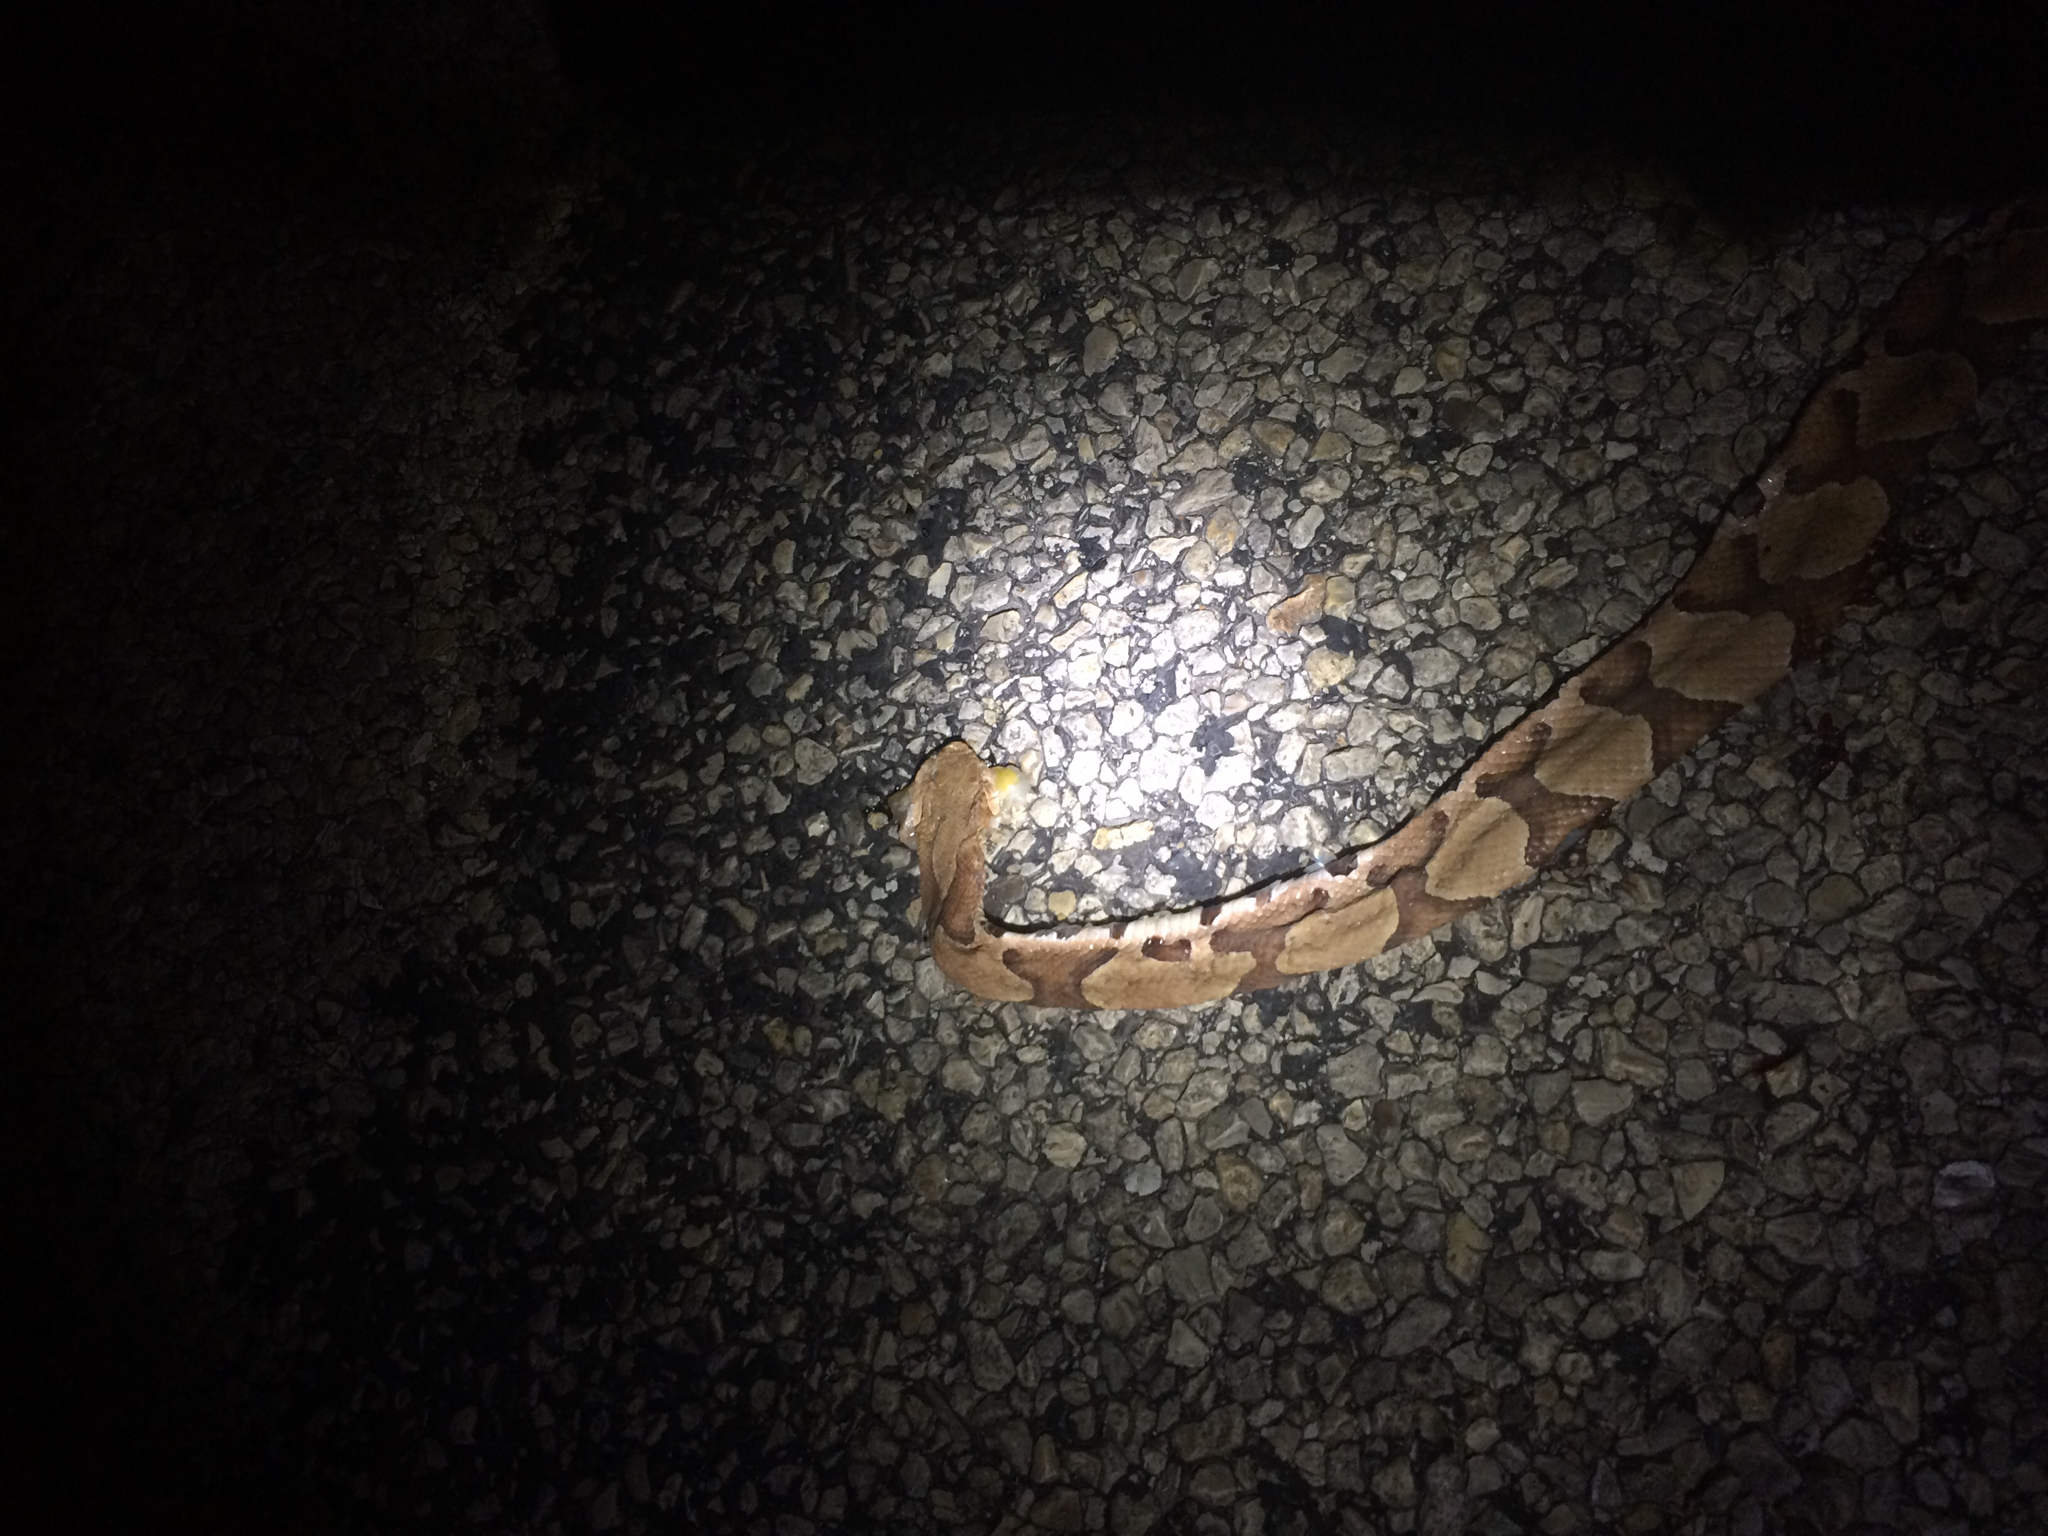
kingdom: Animalia
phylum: Chordata
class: Squamata
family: Viperidae
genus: Agkistrodon
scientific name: Agkistrodon contortrix
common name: Northern copperhead
